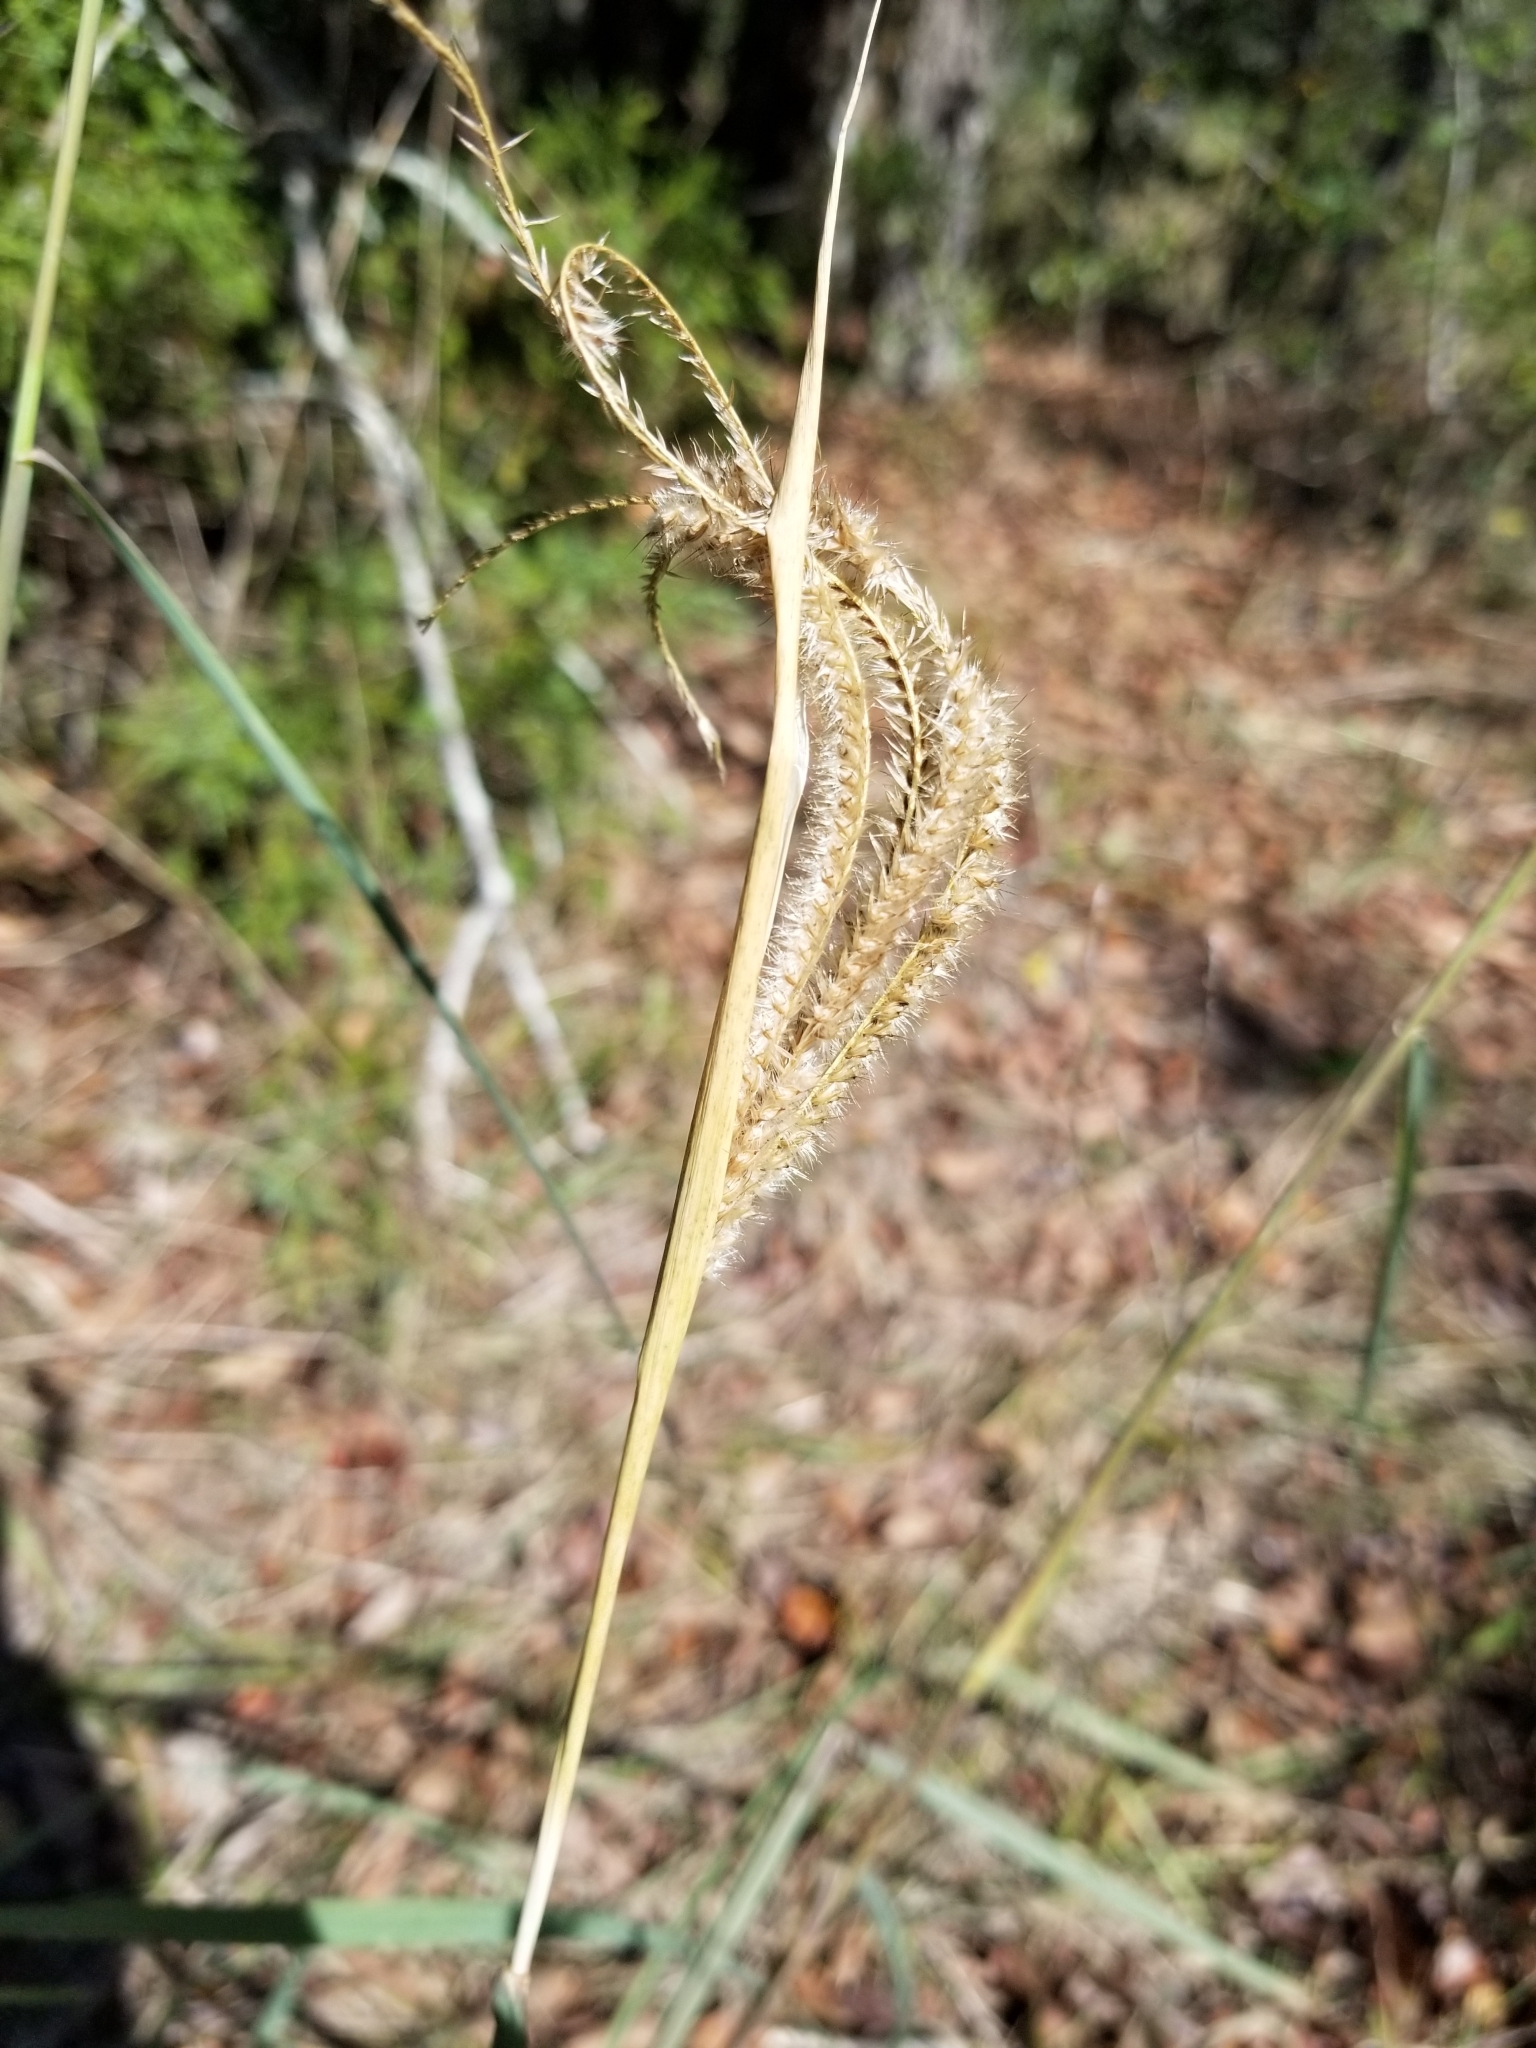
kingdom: Plantae
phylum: Tracheophyta
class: Liliopsida
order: Poales
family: Poaceae
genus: Stapfochloa
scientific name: Stapfochloa canterae
